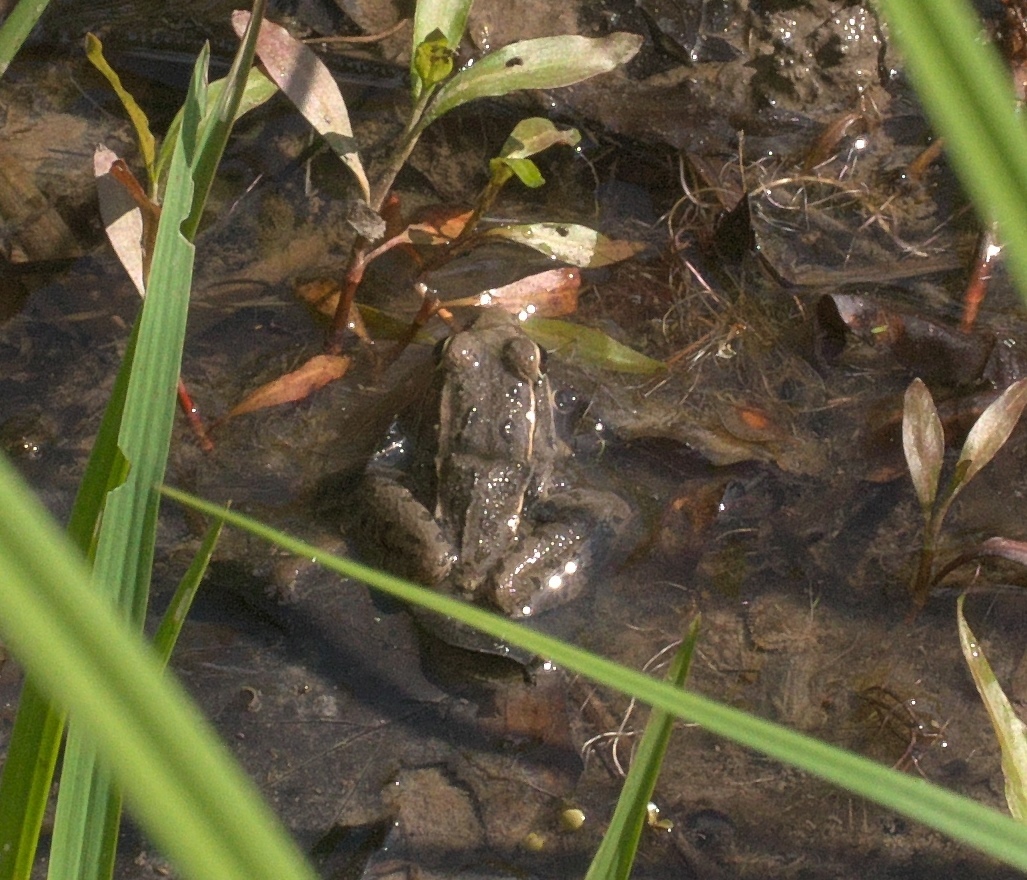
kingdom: Animalia
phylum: Chordata
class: Amphibia
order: Anura
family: Ranidae
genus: Lithobates
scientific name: Lithobates sphenocephalus
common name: Southern leopard frog
